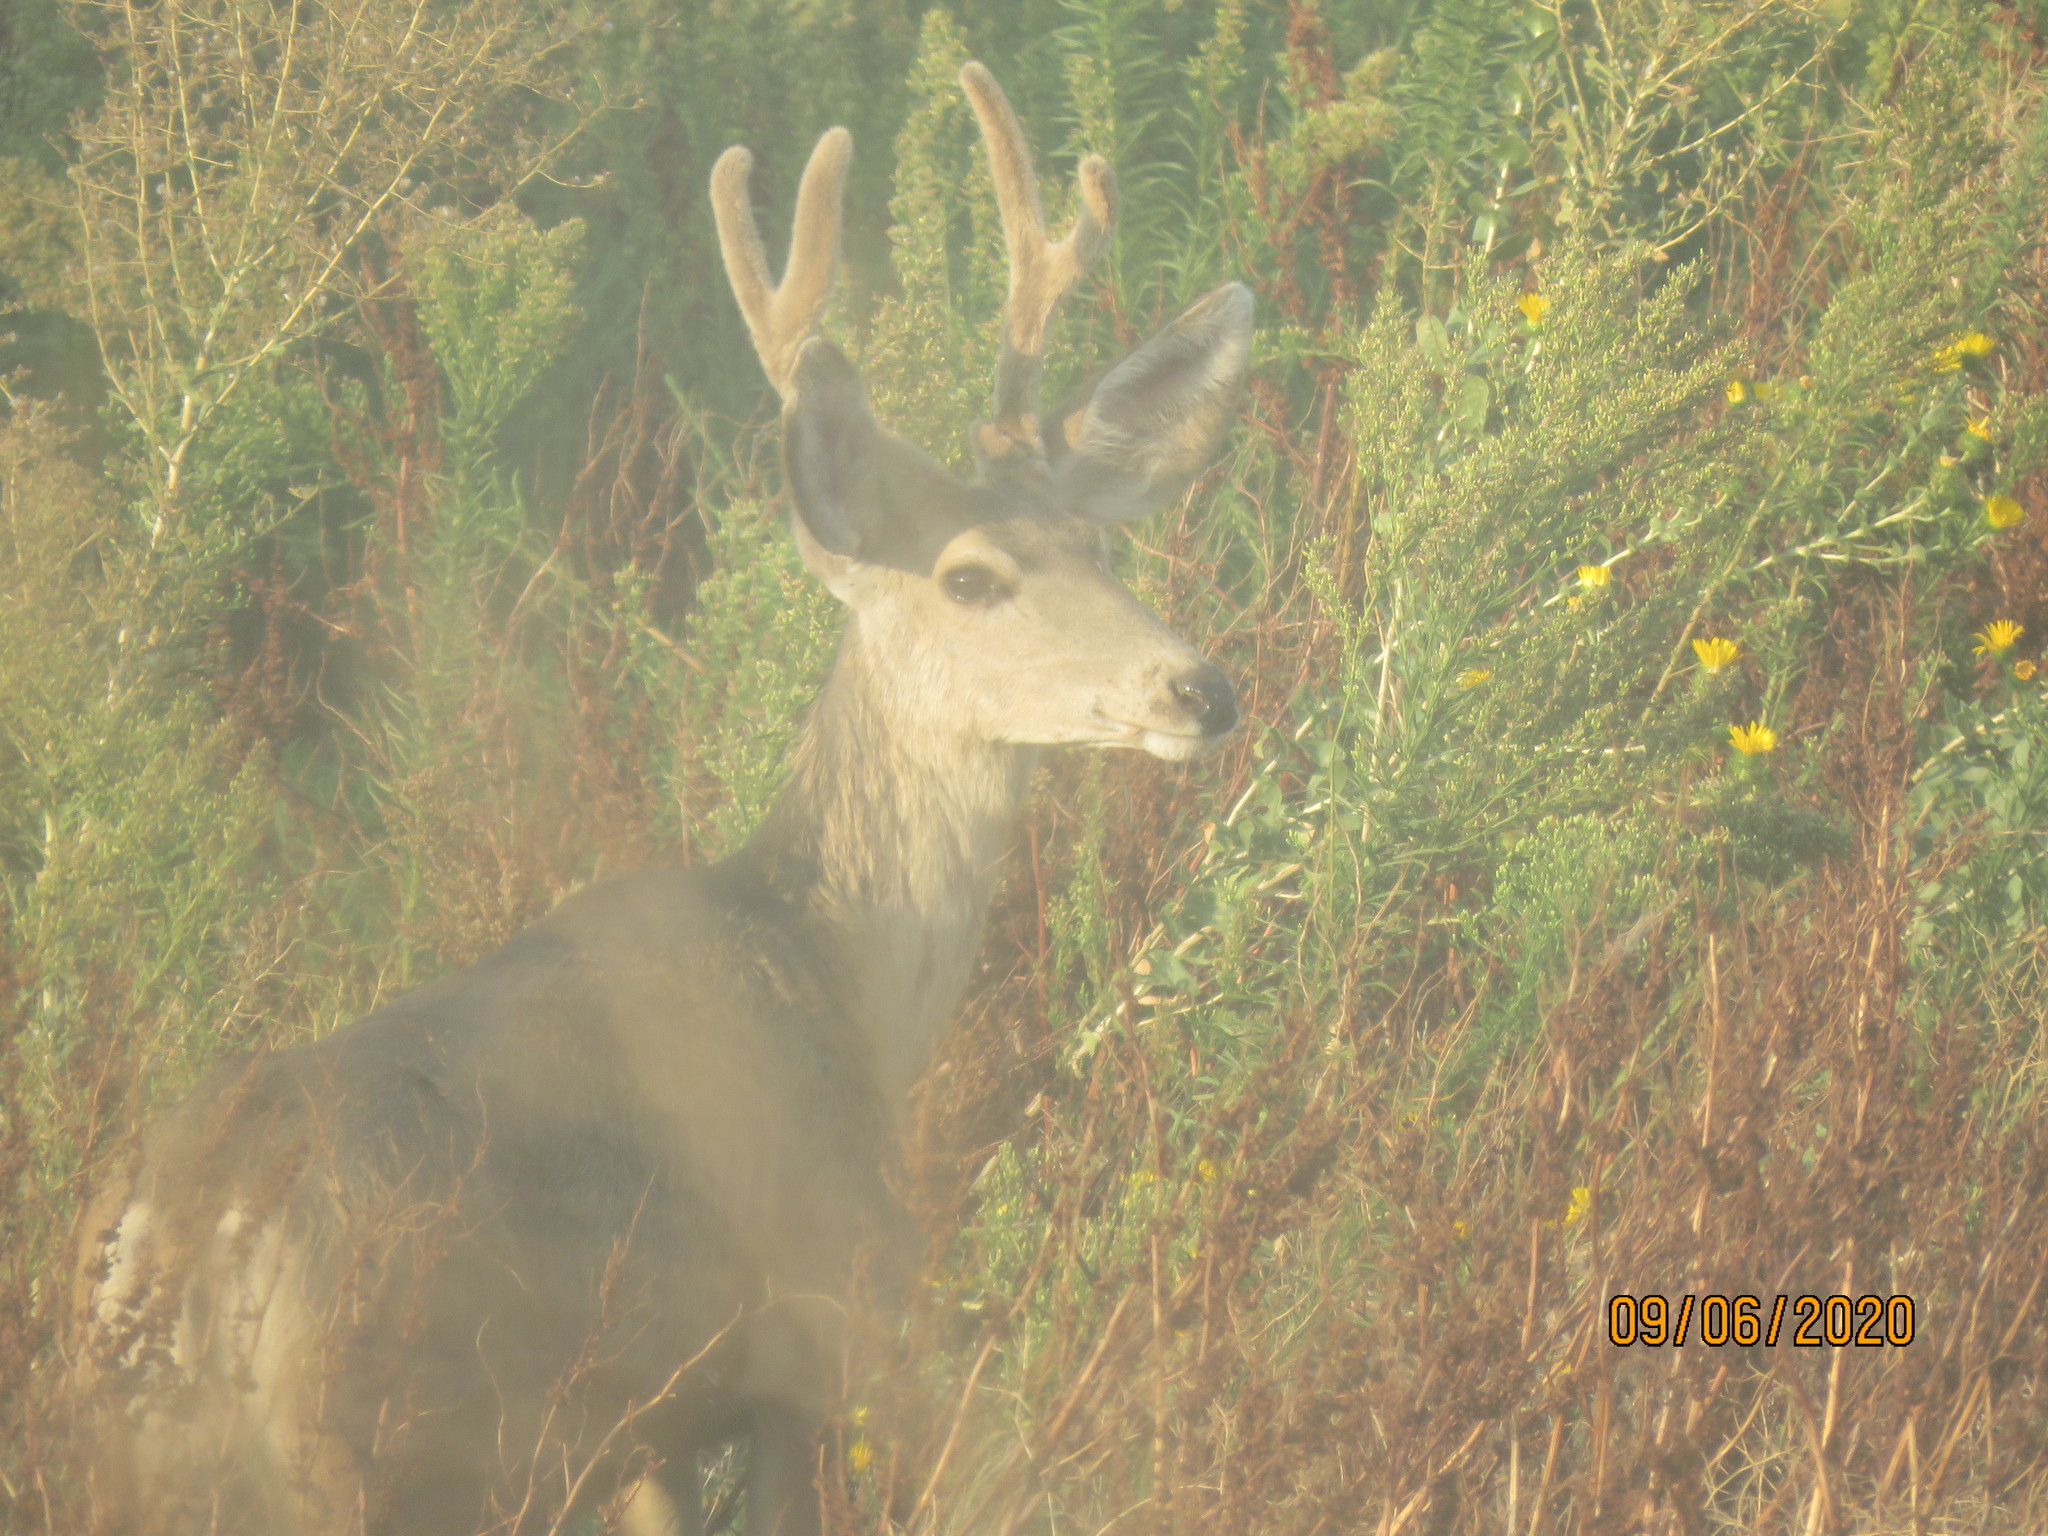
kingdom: Animalia
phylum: Chordata
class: Mammalia
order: Artiodactyla
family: Cervidae
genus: Odocoileus
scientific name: Odocoileus hemionus
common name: Mule deer
